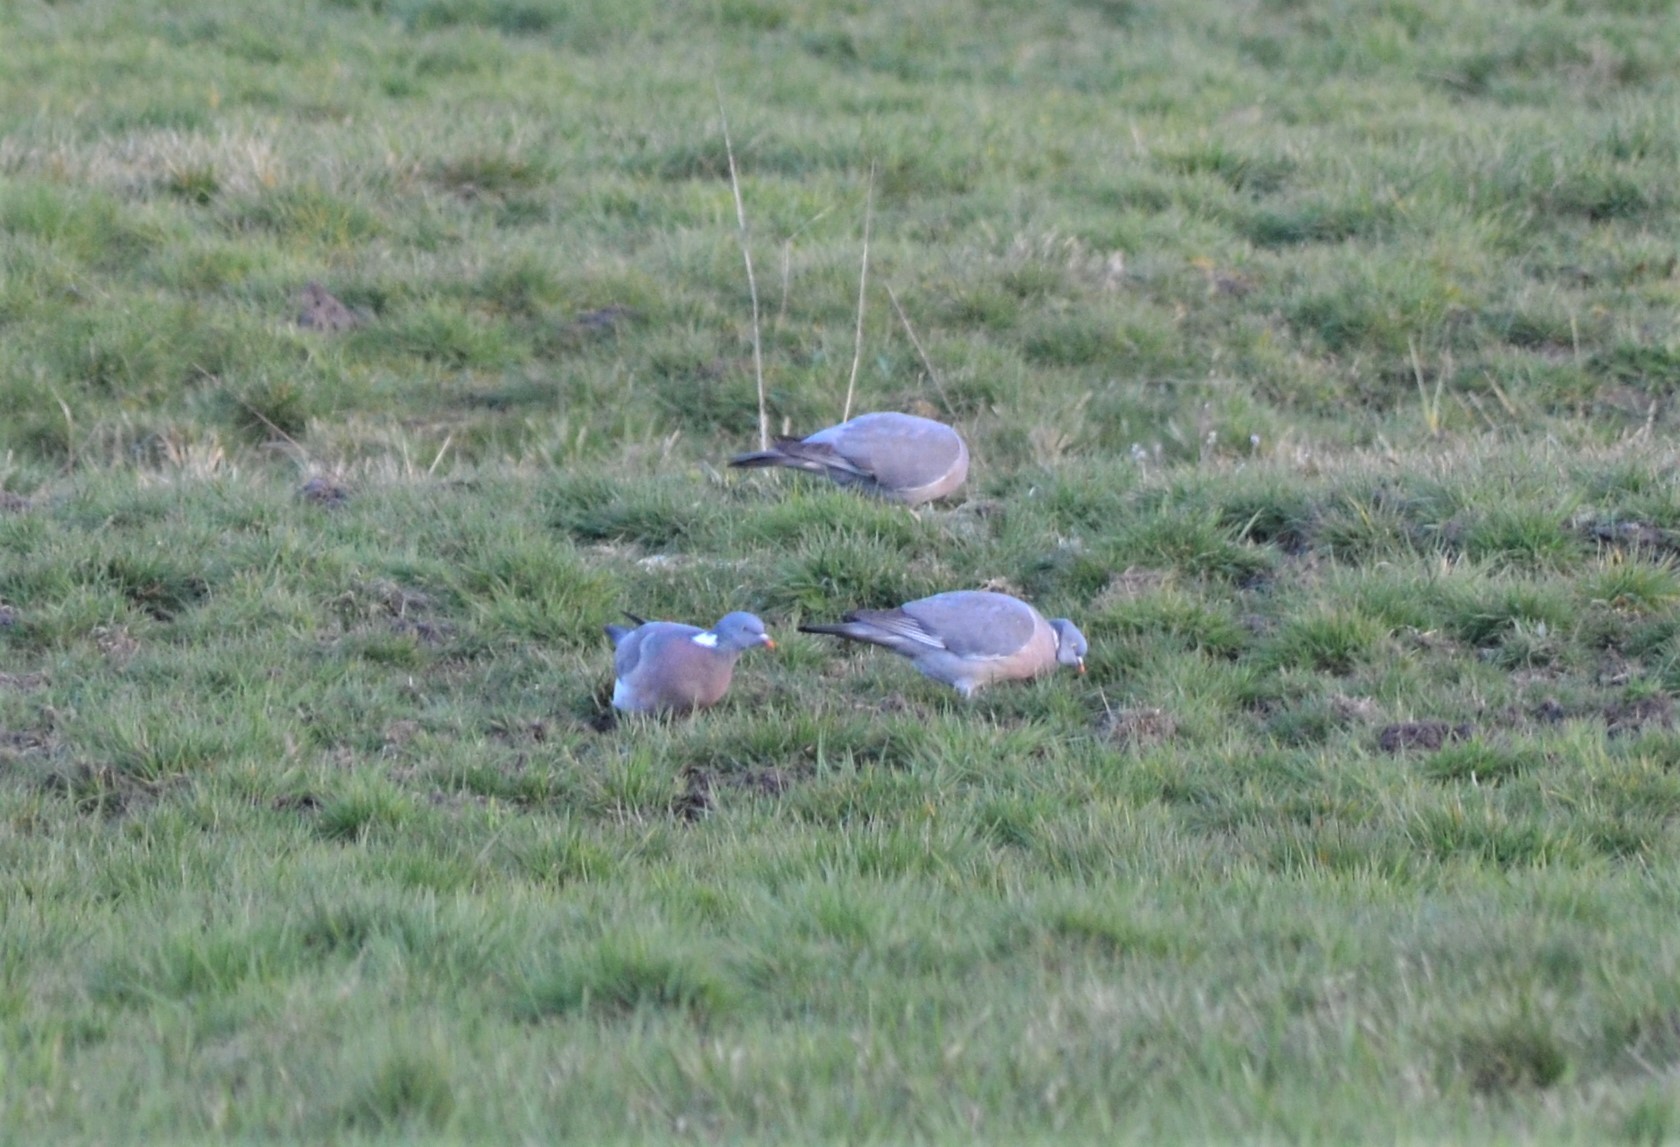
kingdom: Animalia
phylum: Chordata
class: Aves
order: Columbiformes
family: Columbidae
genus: Columba
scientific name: Columba palumbus
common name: Common wood pigeon
